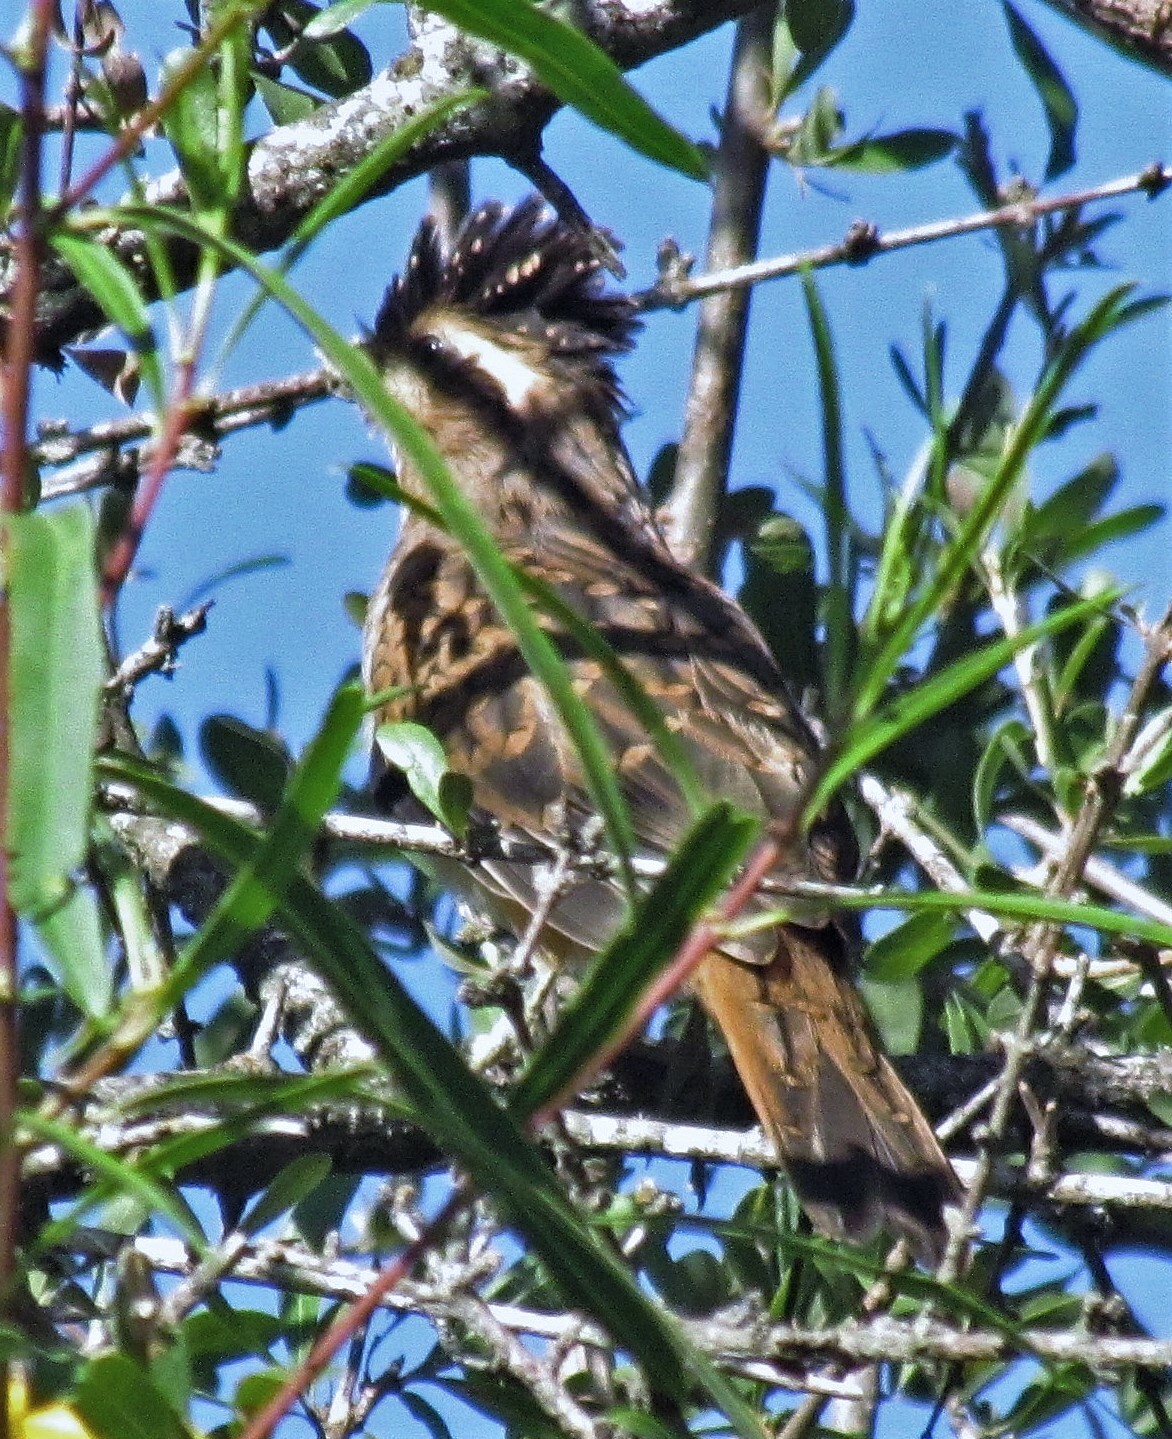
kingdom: Animalia
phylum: Chordata
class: Aves
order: Cuculiformes
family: Cuculidae
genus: Tapera
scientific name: Tapera naevia
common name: Striped cuckoo
